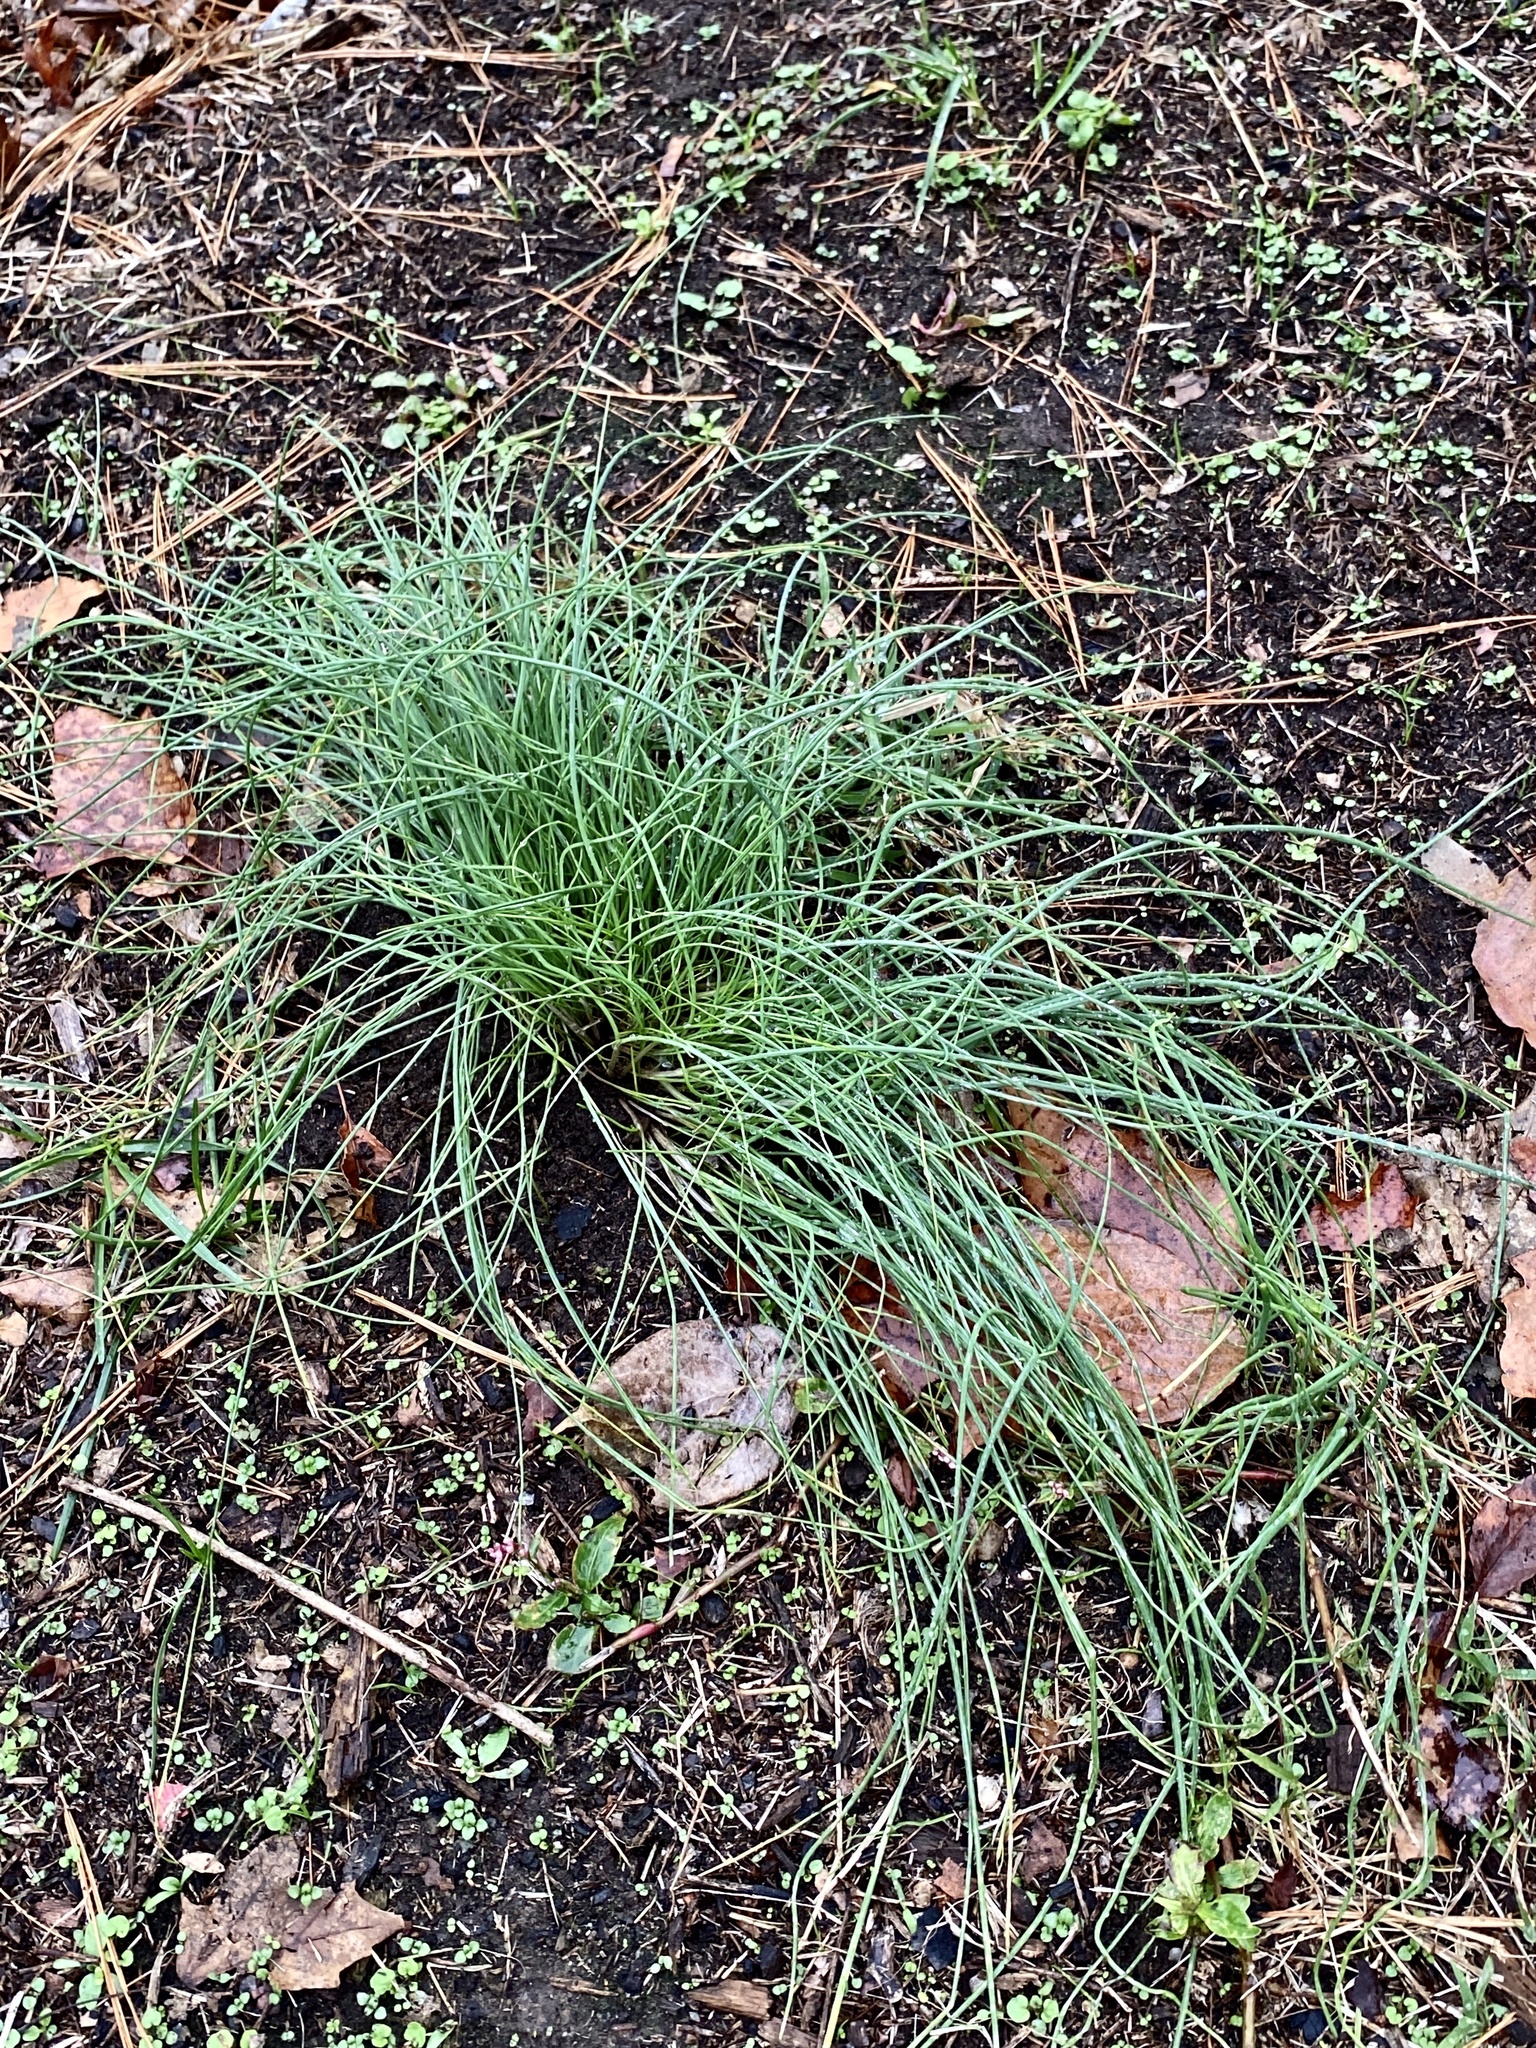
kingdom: Plantae
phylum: Tracheophyta
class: Liliopsida
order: Asparagales
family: Amaryllidaceae
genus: Allium
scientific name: Allium vineale
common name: Crow garlic
